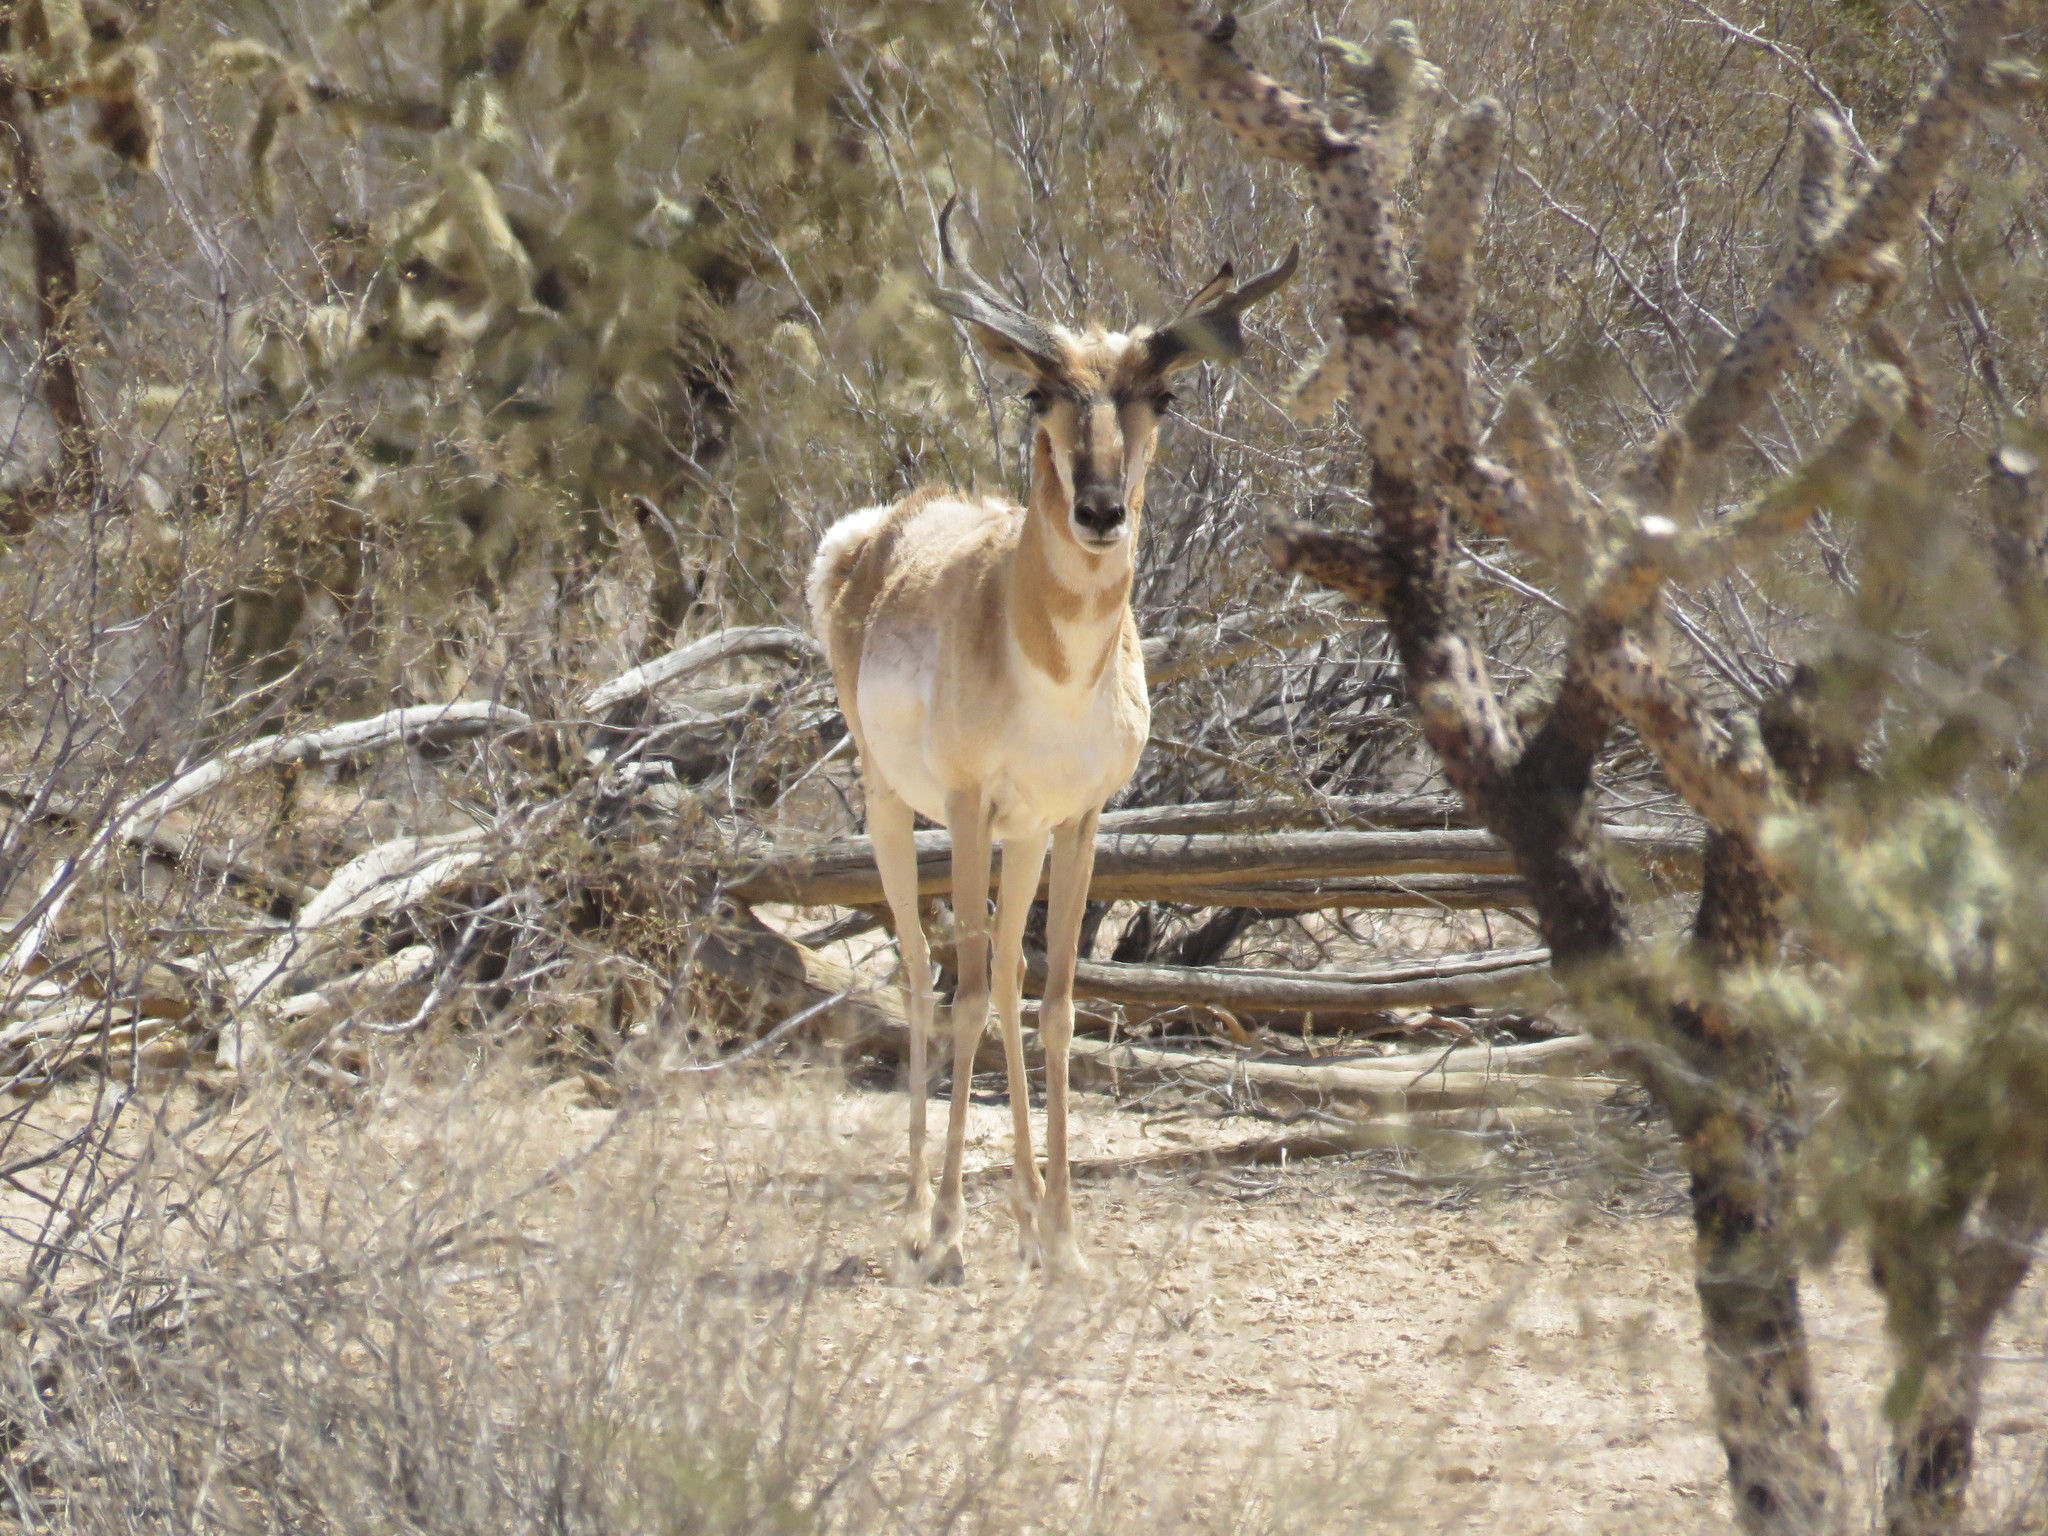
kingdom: Animalia
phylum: Chordata
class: Mammalia
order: Artiodactyla
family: Antilocapridae
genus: Antilocapra
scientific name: Antilocapra americana
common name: Pronghorn
